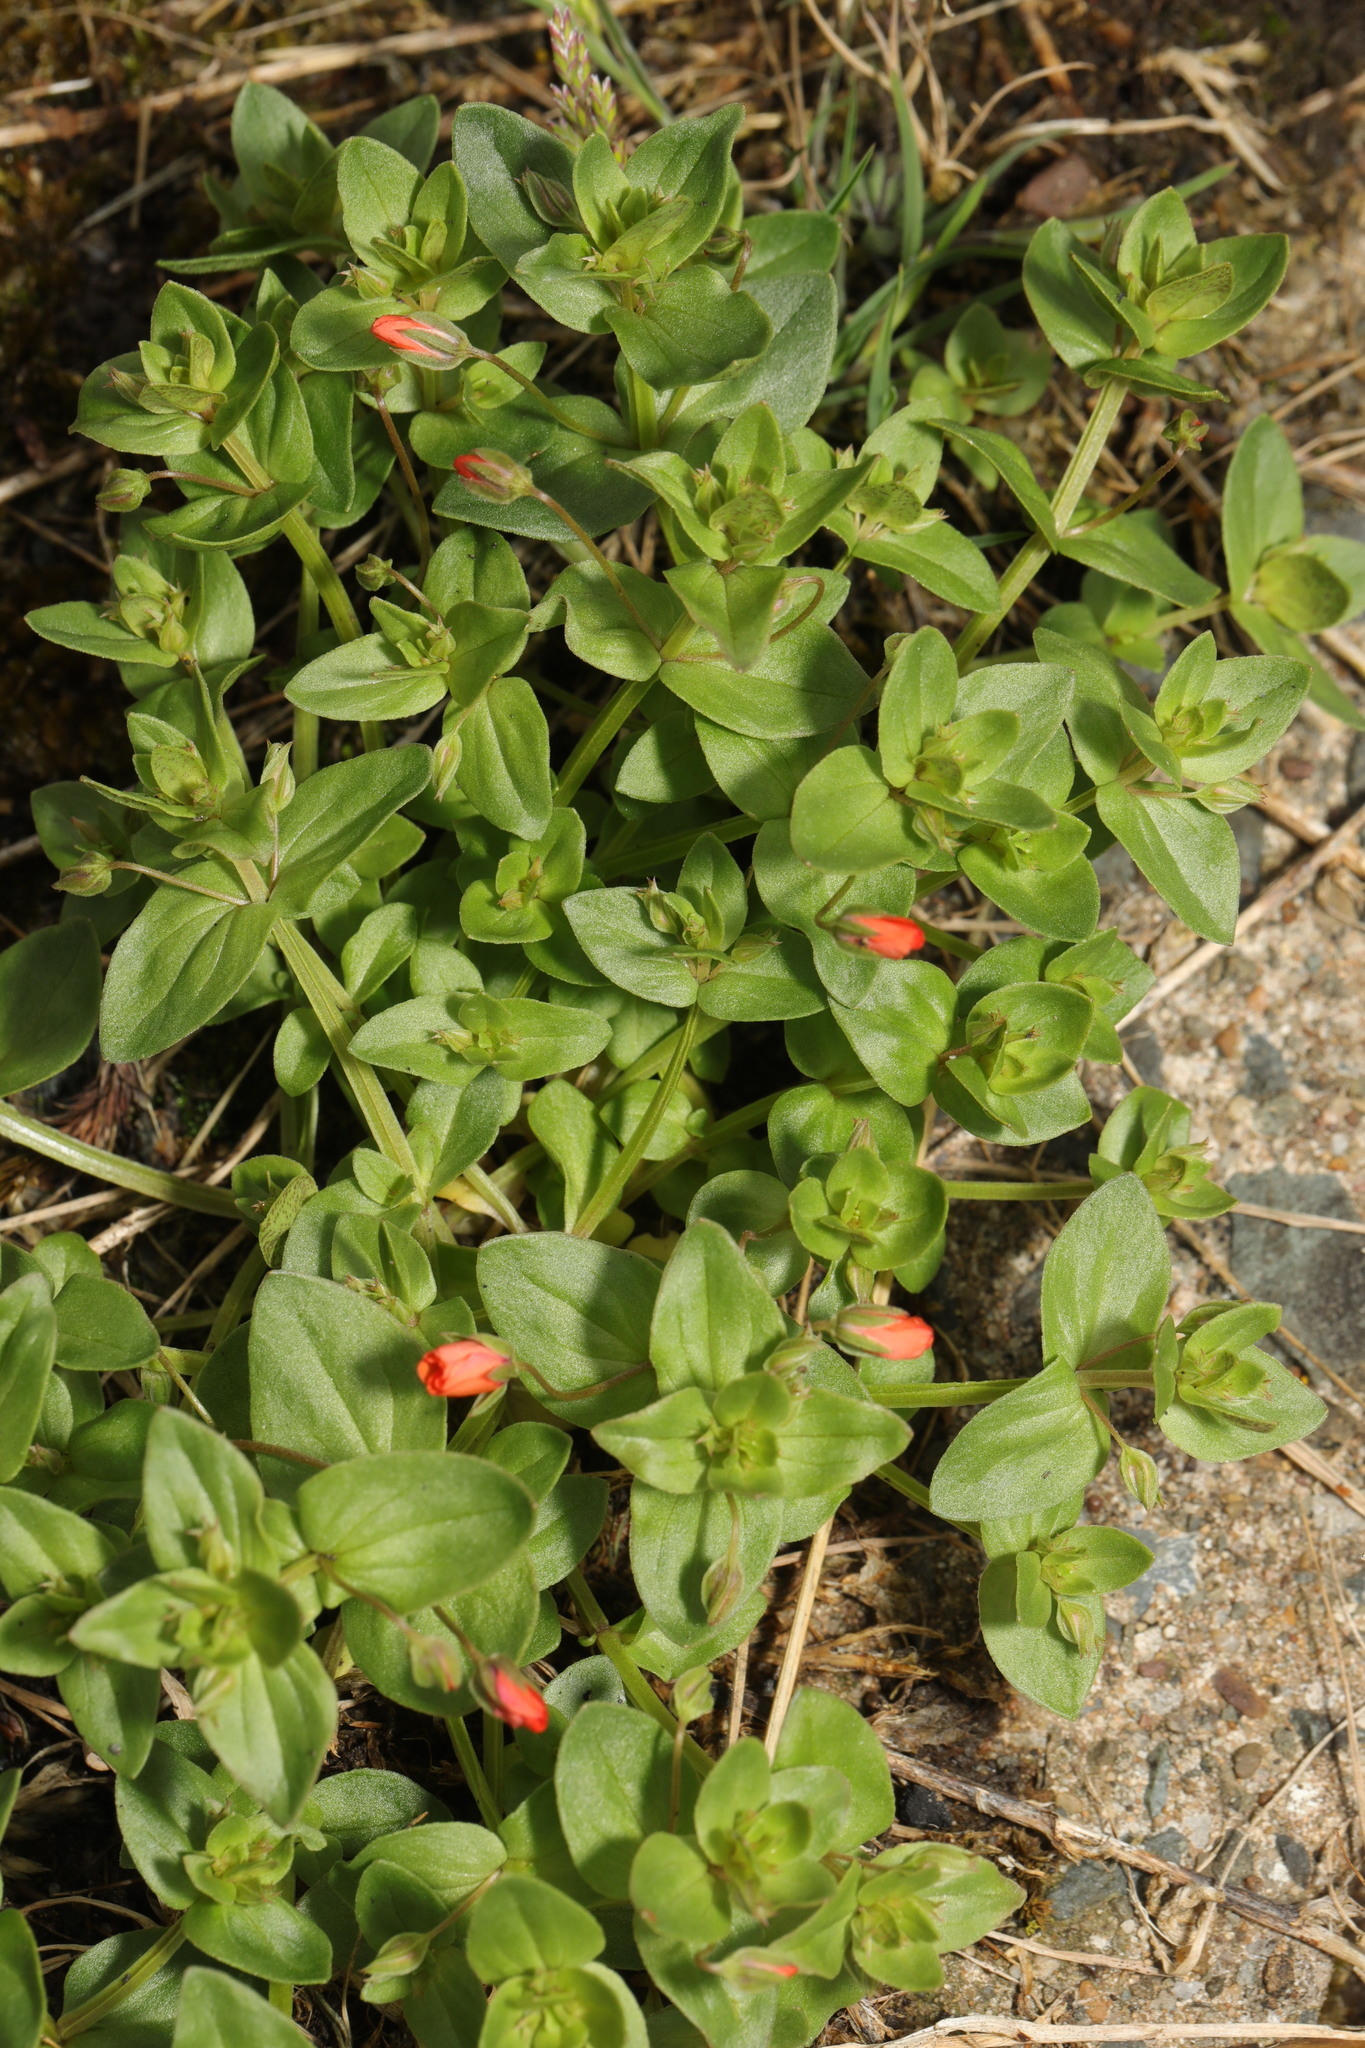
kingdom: Plantae
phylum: Tracheophyta
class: Magnoliopsida
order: Ericales
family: Primulaceae
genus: Lysimachia
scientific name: Lysimachia arvensis
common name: Scarlet pimpernel
